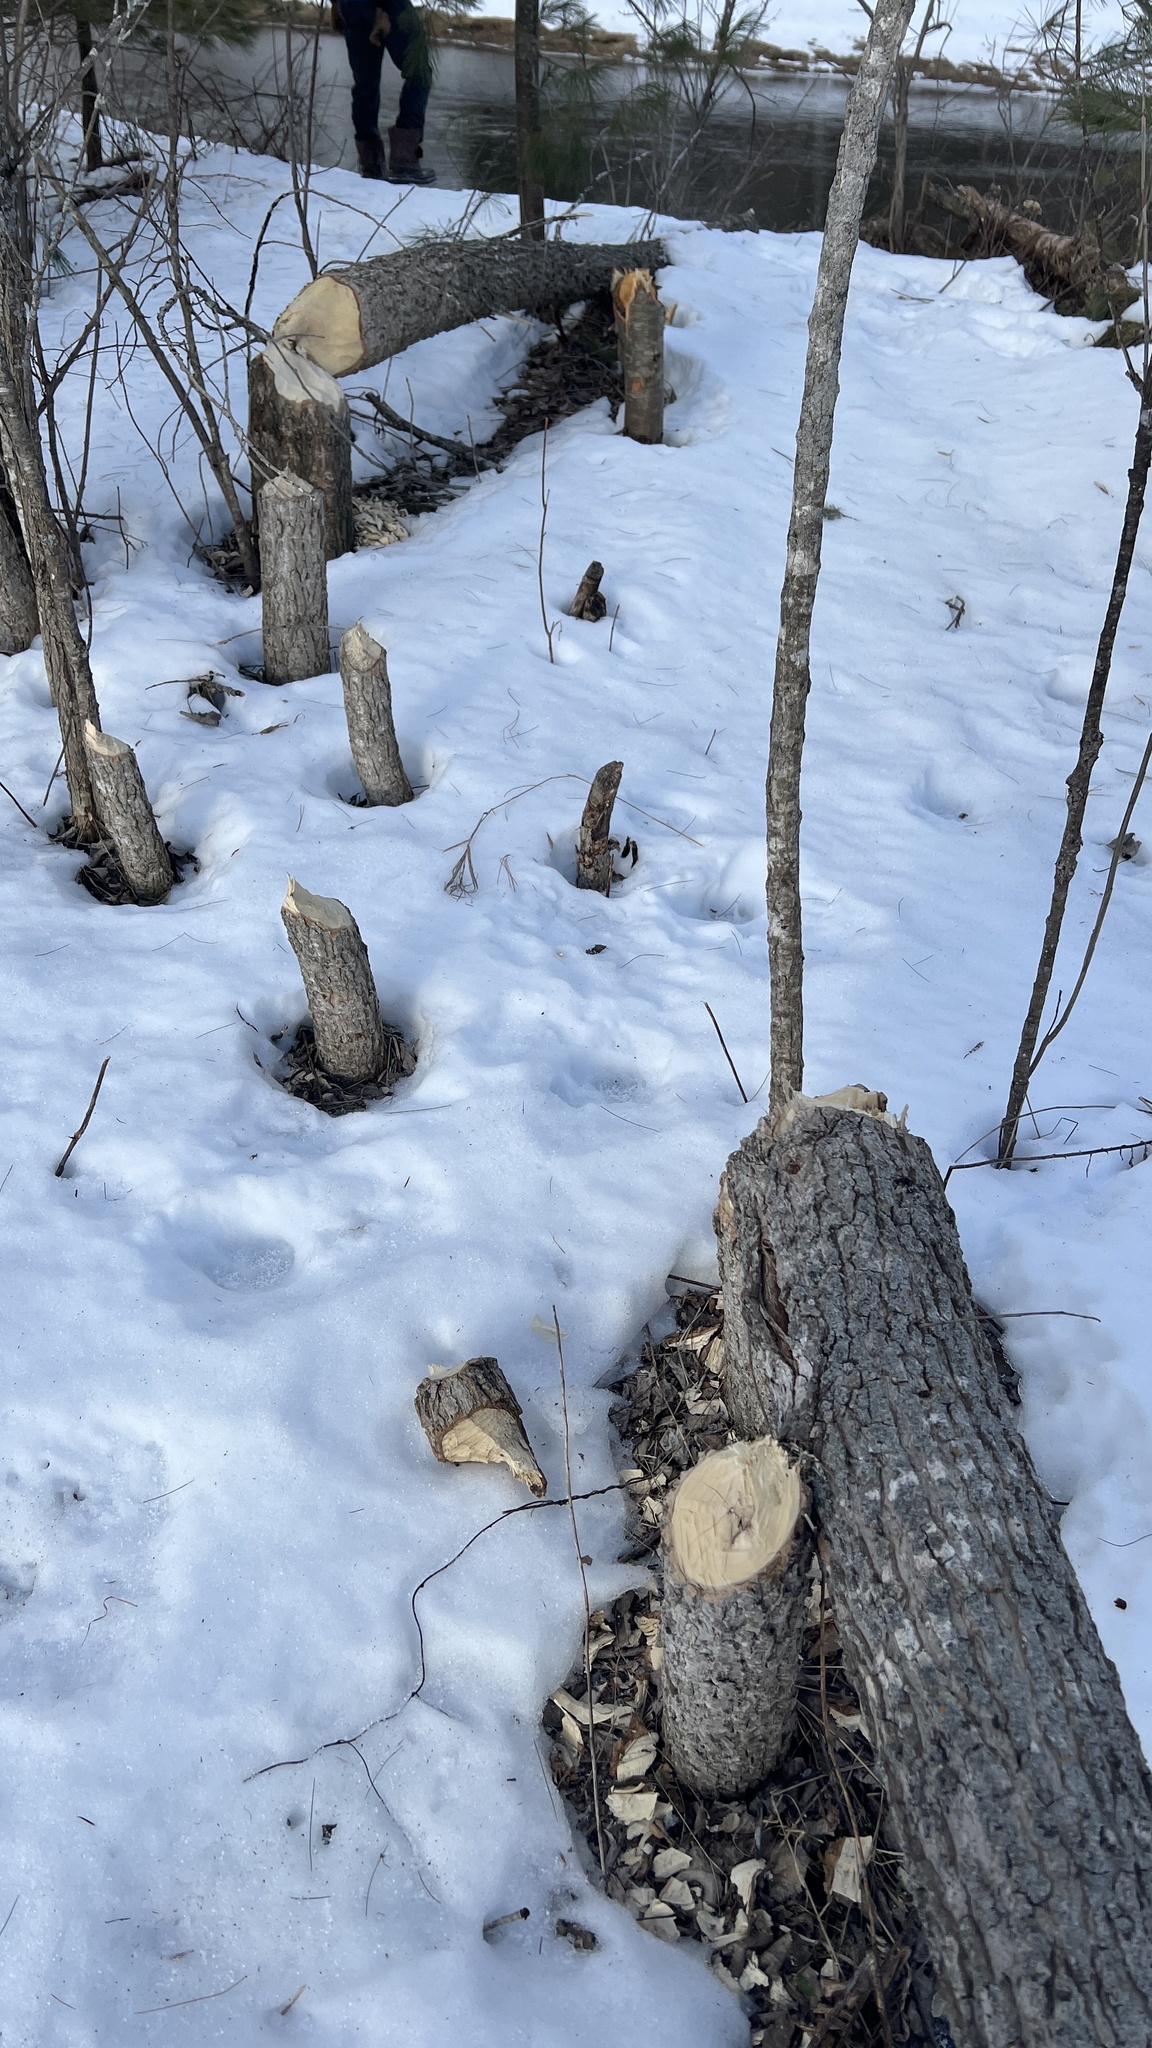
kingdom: Animalia
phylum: Chordata
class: Mammalia
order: Rodentia
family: Castoridae
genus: Castor
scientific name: Castor canadensis
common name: American beaver
